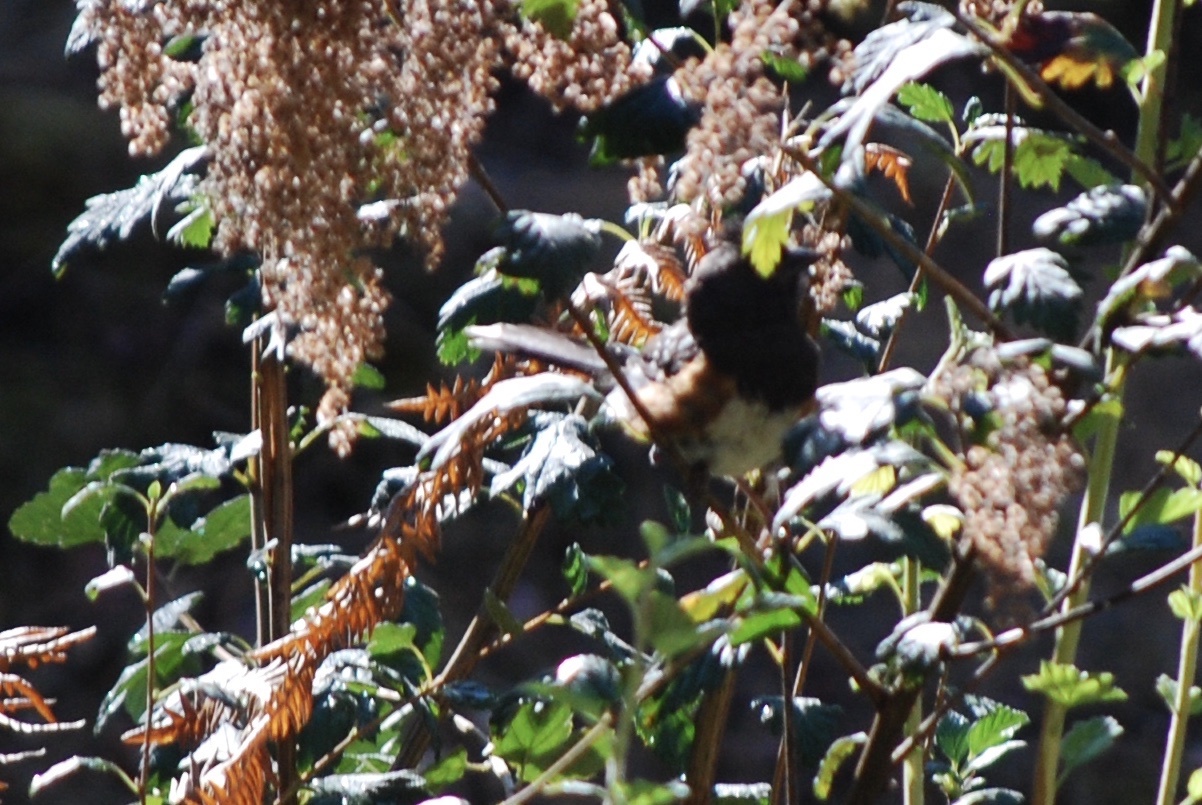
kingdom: Animalia
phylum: Chordata
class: Aves
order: Passeriformes
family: Passerellidae
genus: Pipilo
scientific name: Pipilo maculatus
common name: Spotted towhee
